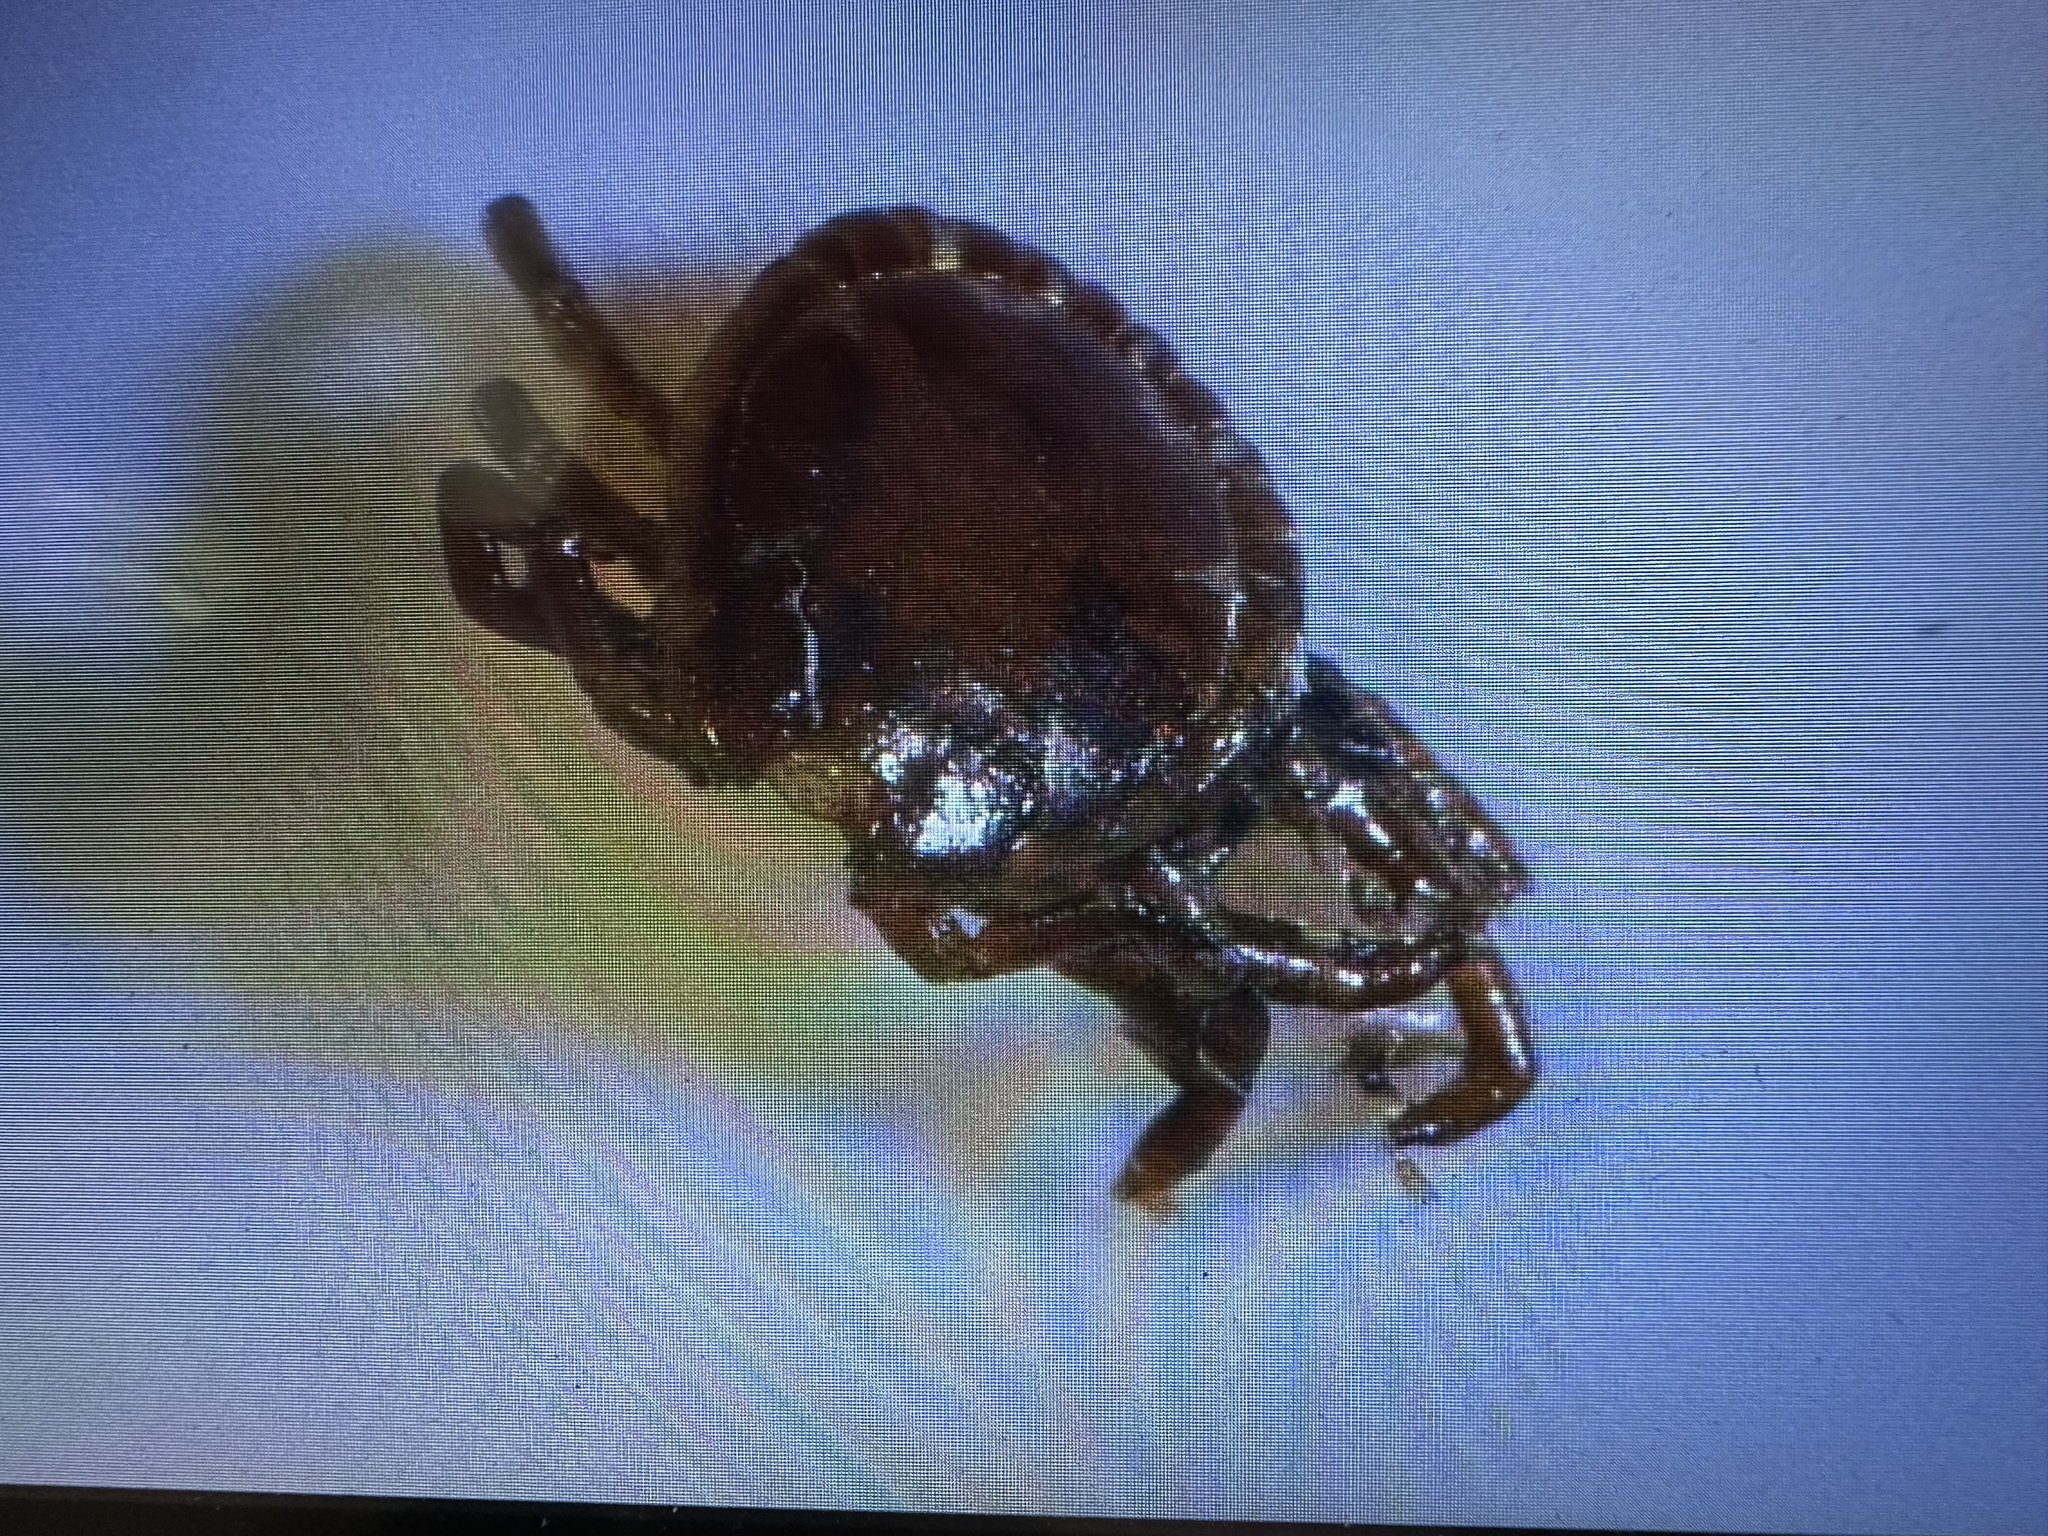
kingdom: Animalia
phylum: Arthropoda
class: Arachnida
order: Ixodida
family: Ixodidae
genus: Amblyomma
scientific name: Amblyomma americanum
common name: Lone star tick
